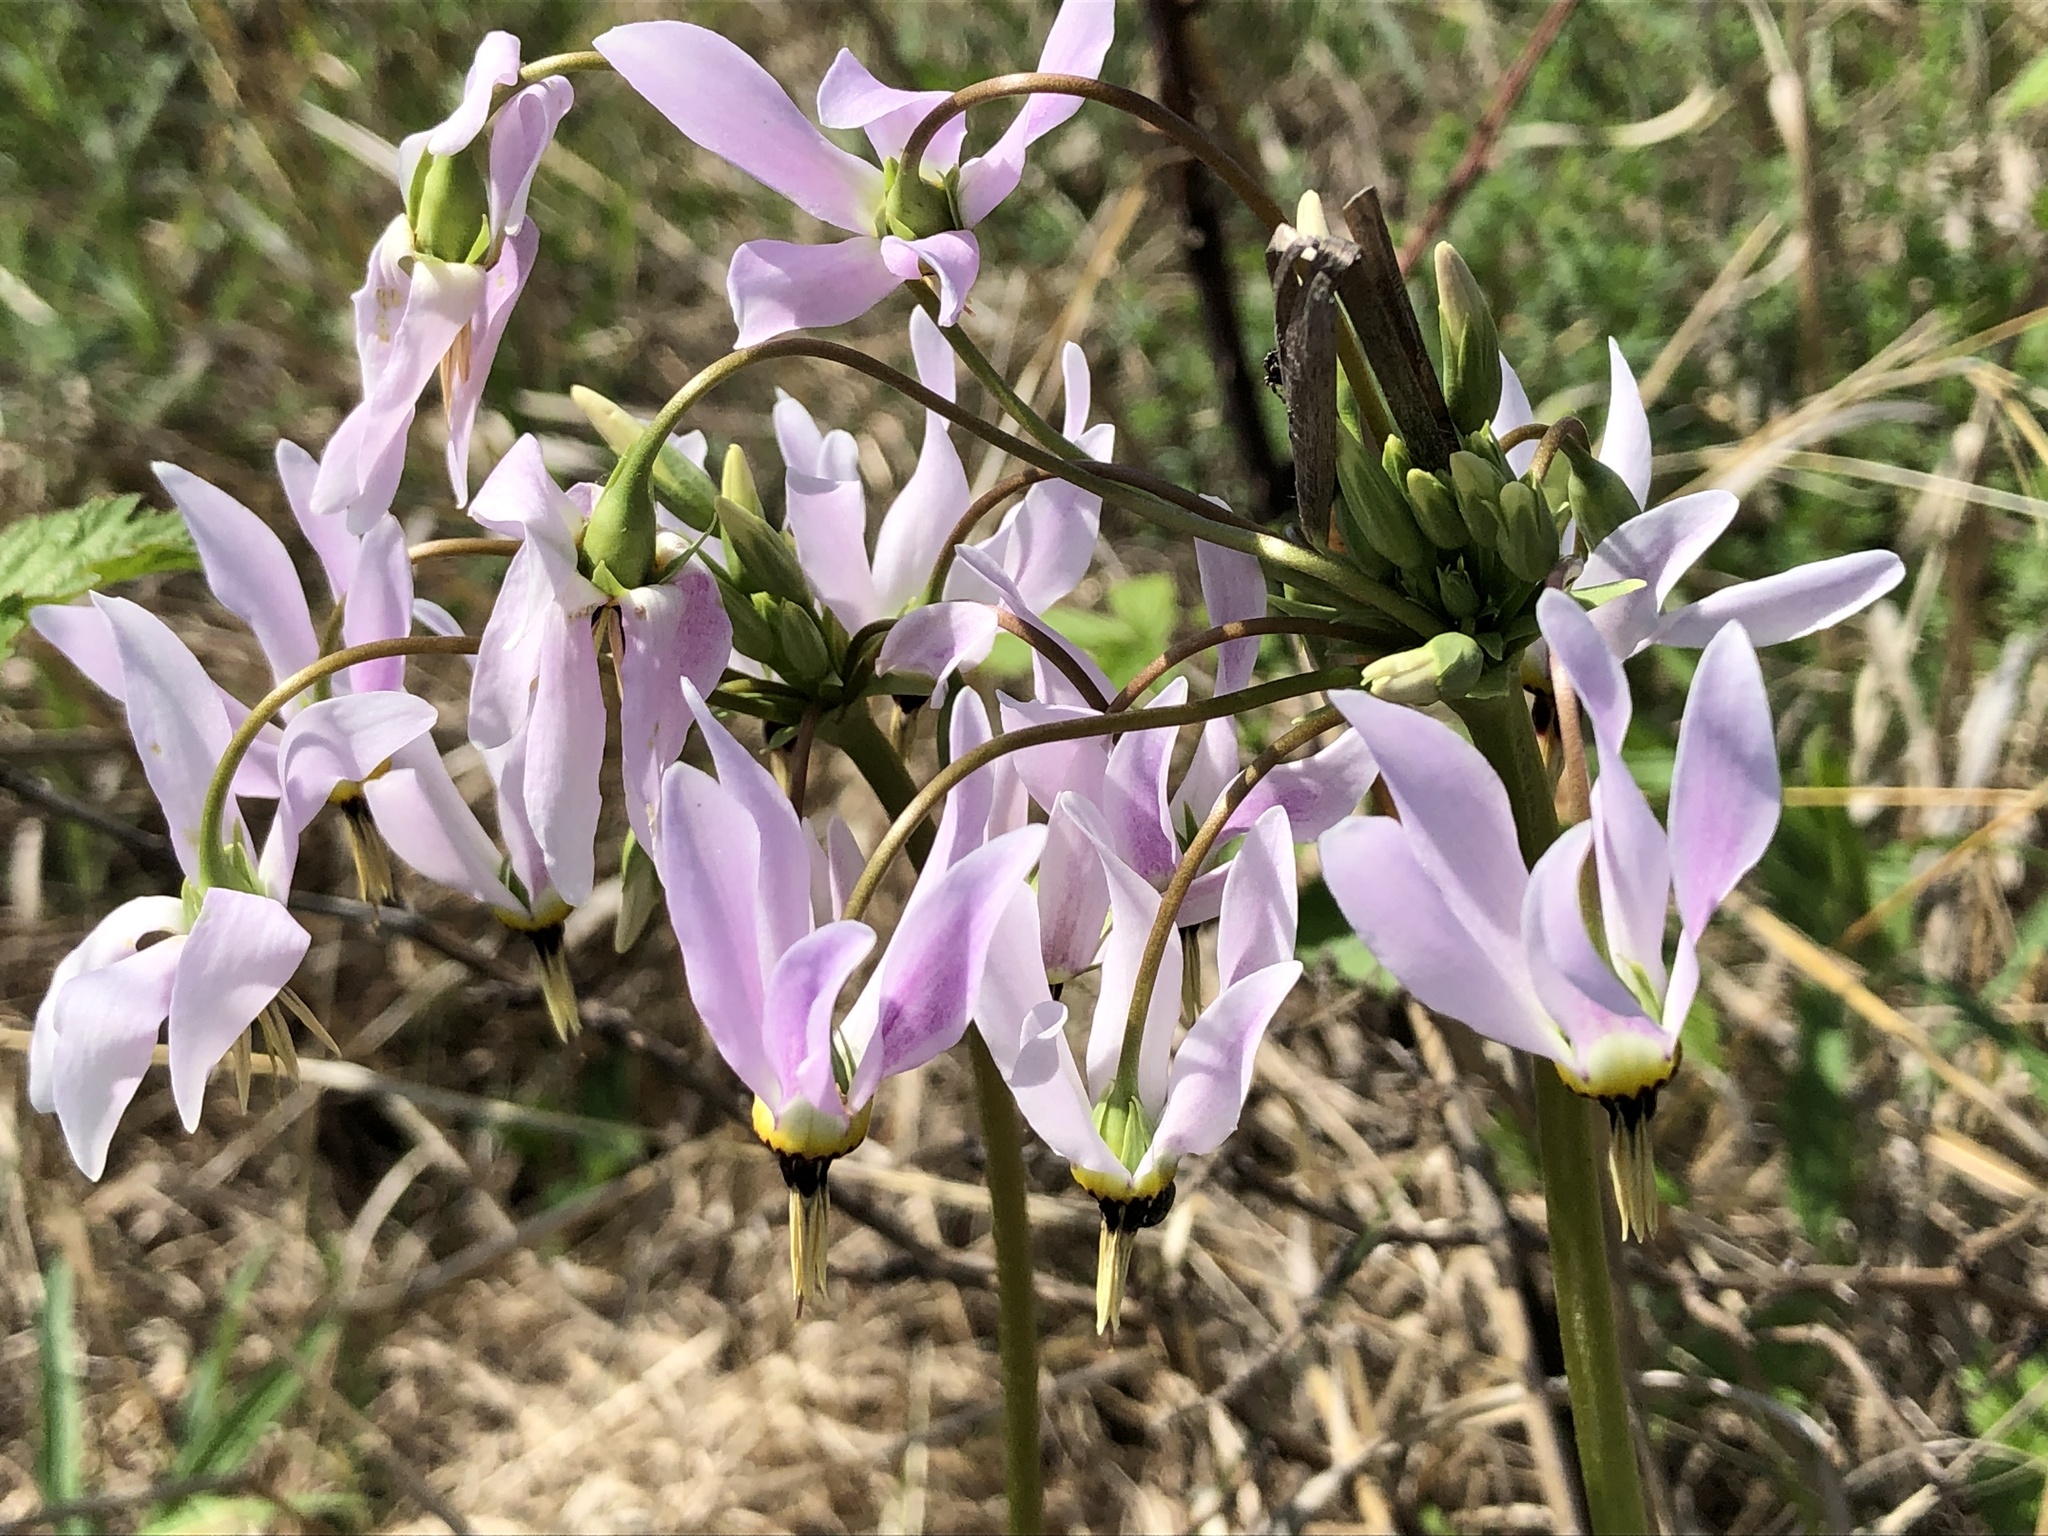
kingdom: Plantae
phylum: Tracheophyta
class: Magnoliopsida
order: Ericales
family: Primulaceae
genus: Dodecatheon
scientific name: Dodecatheon meadia
